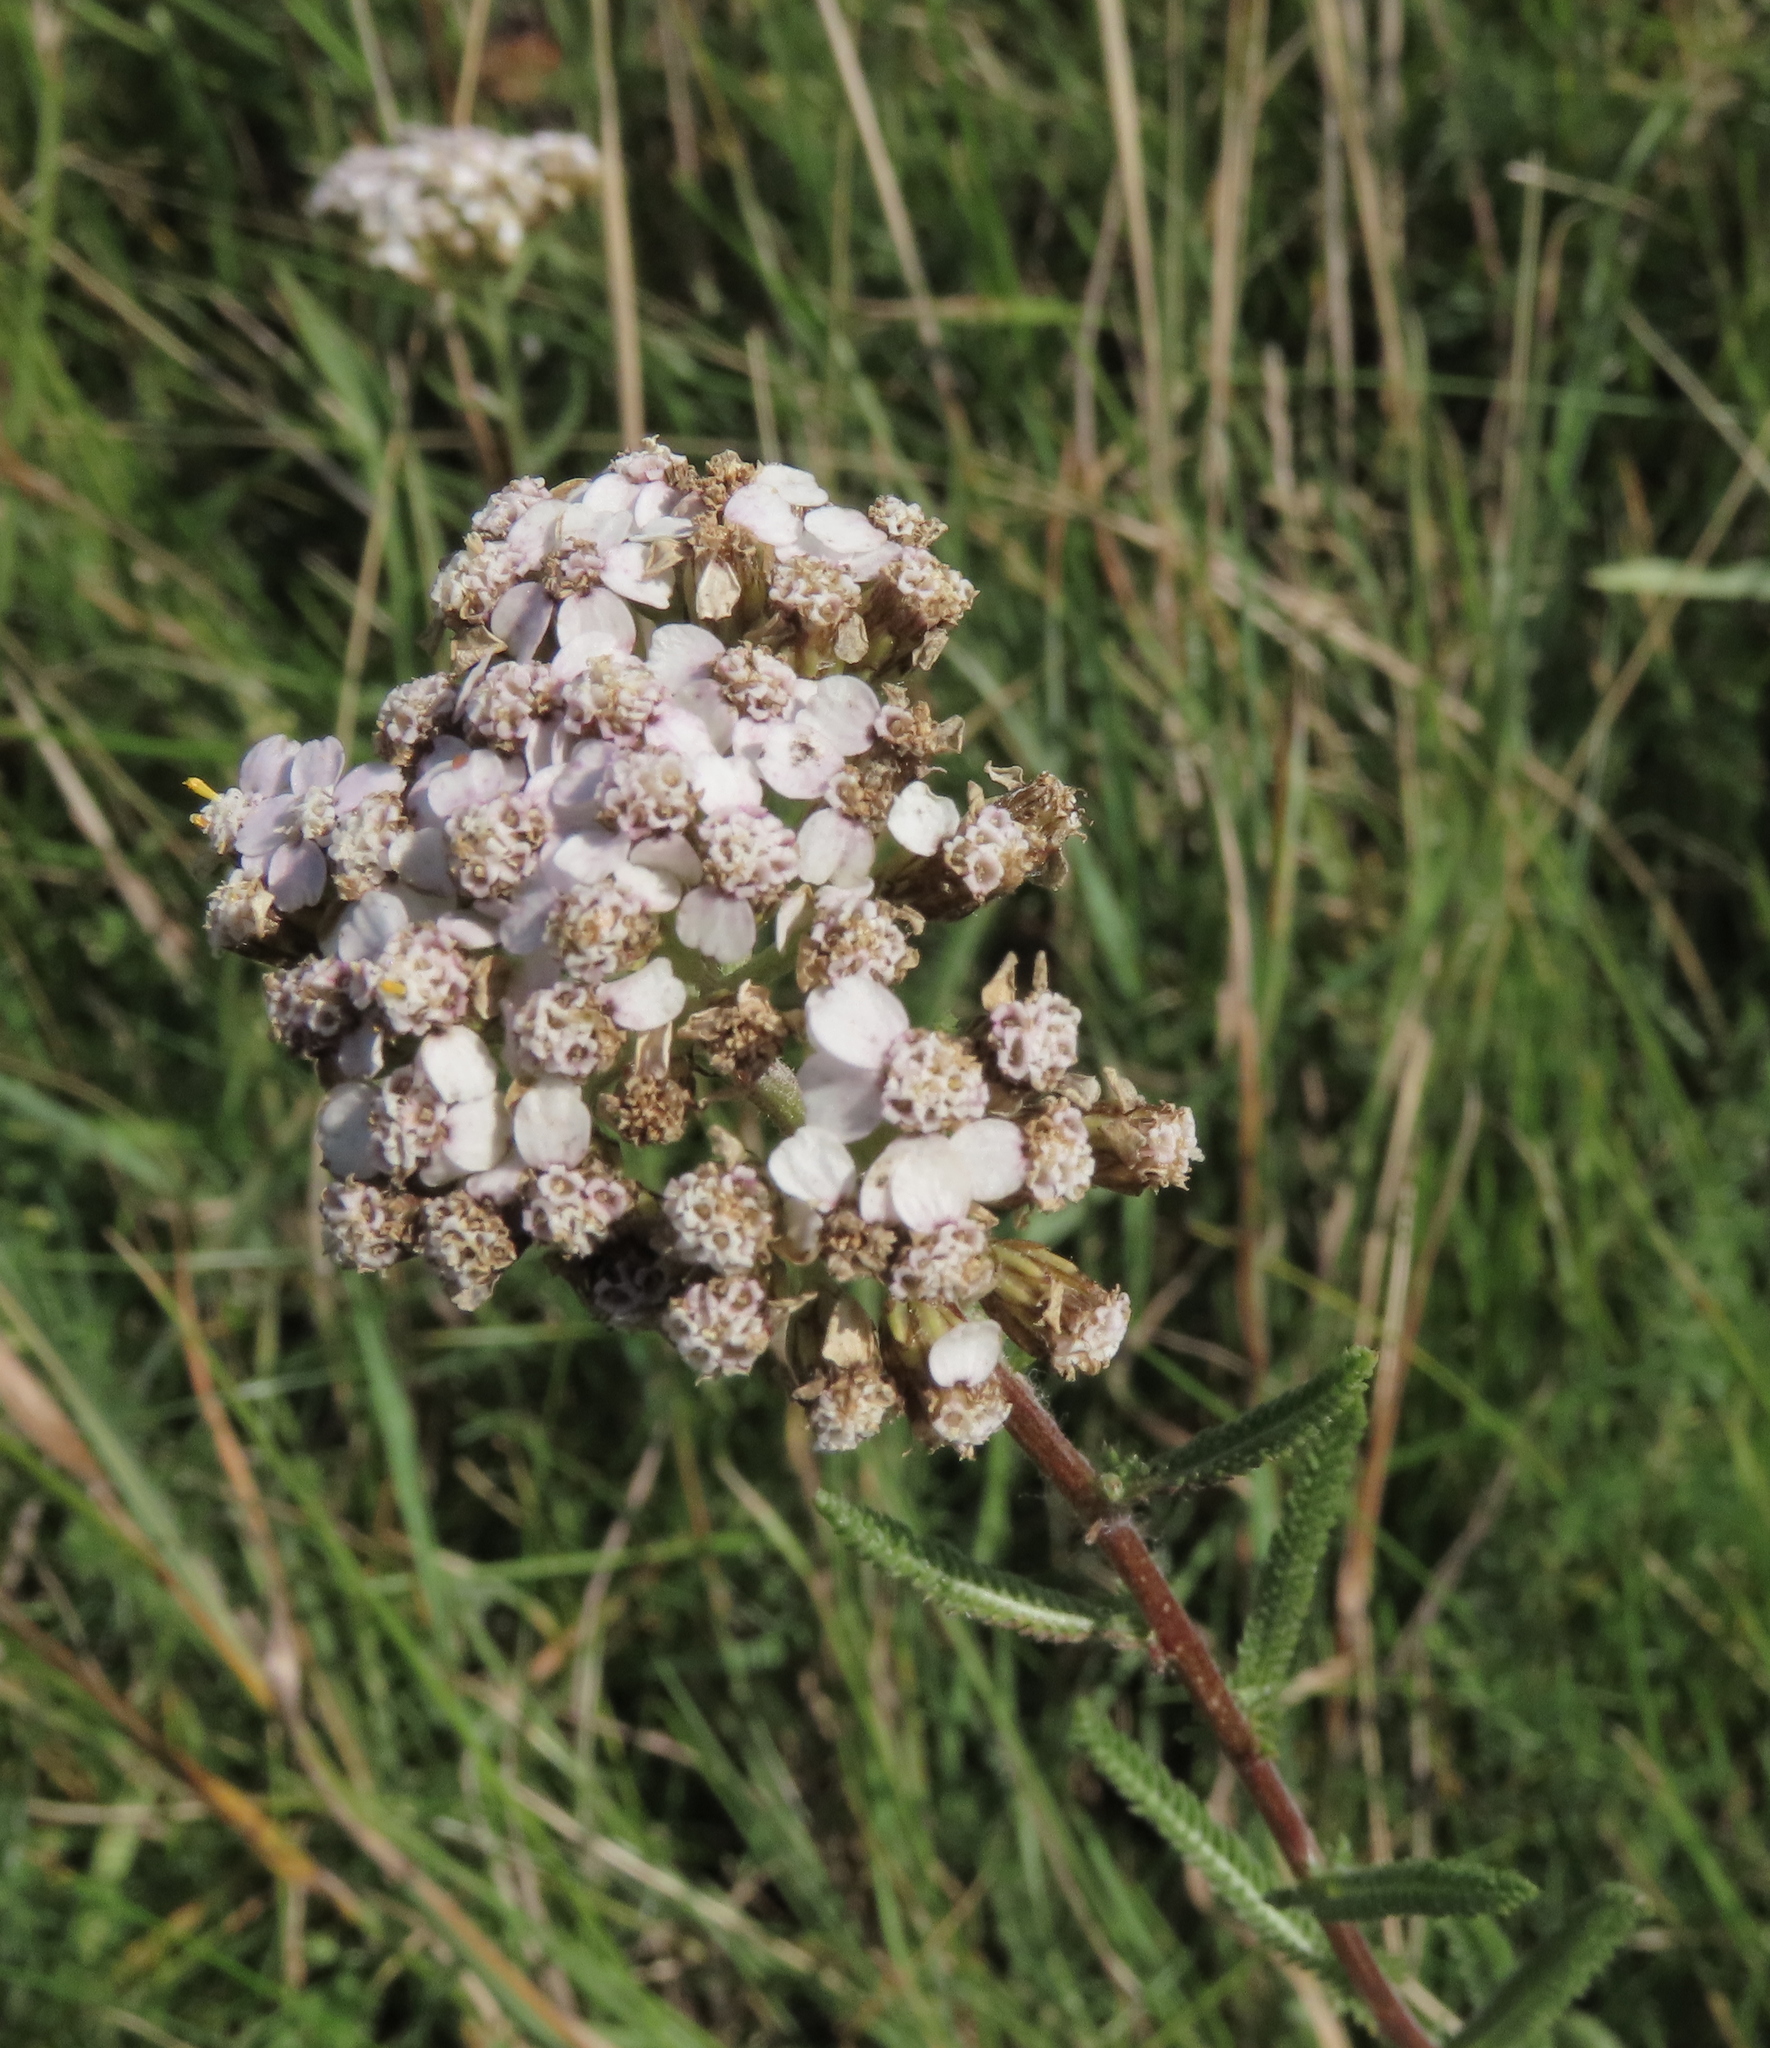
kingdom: Plantae
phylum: Tracheophyta
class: Magnoliopsida
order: Asterales
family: Asteraceae
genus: Achillea
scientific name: Achillea millefolium
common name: Yarrow
